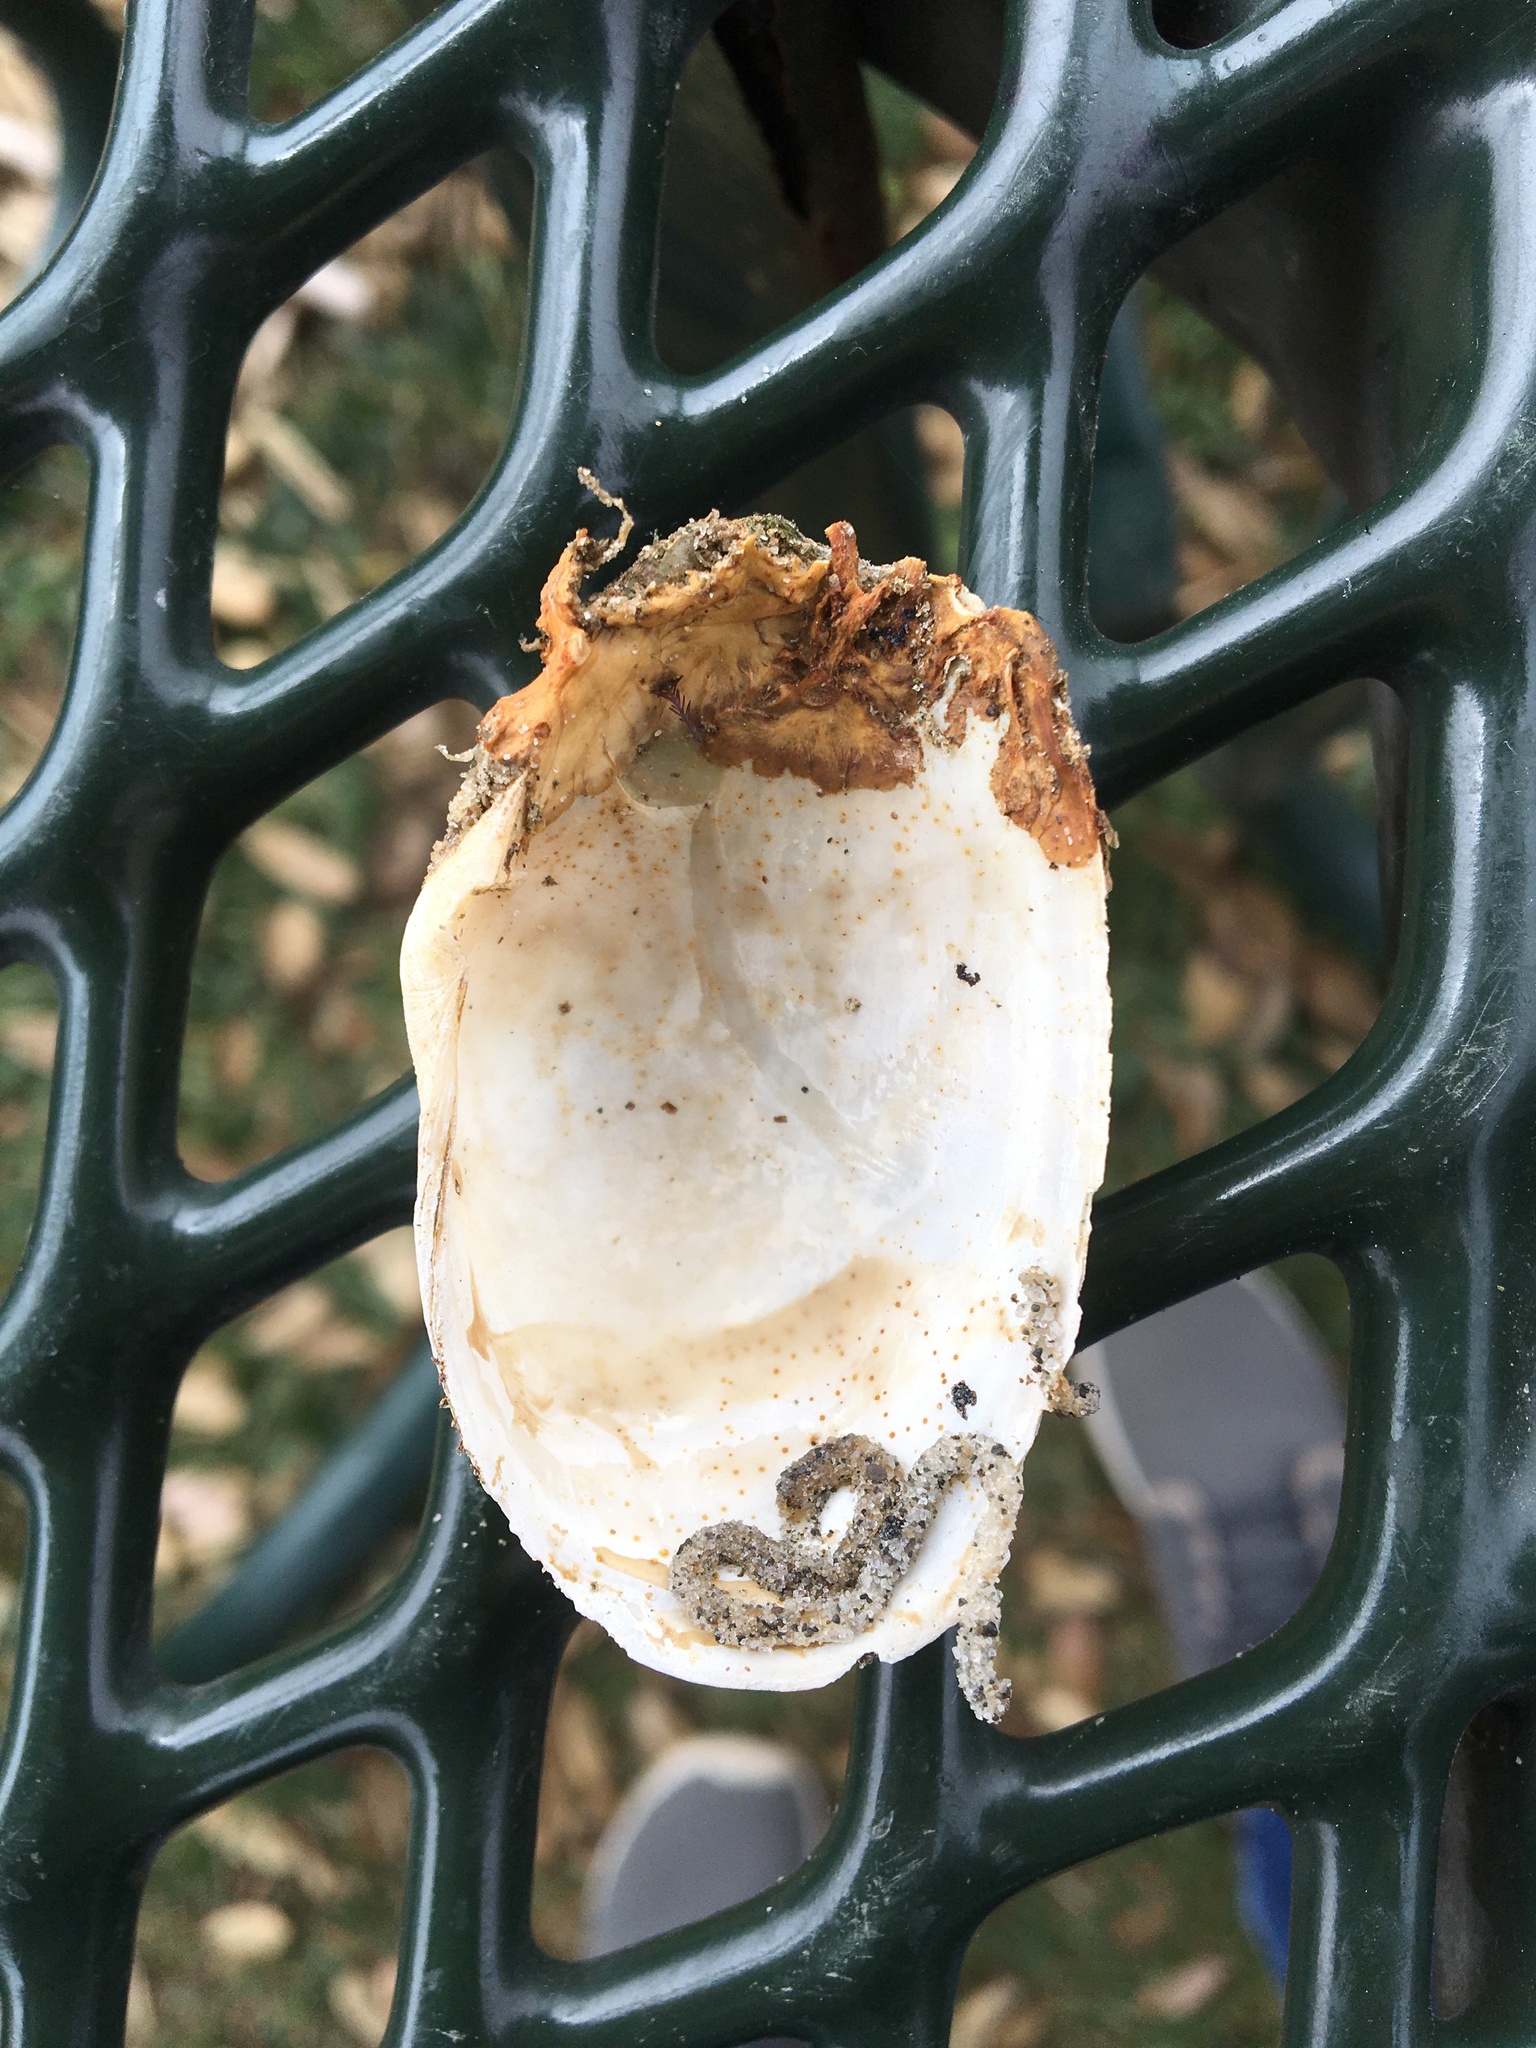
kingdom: Animalia
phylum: Mollusca
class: Bivalvia
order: Myida
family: Myidae
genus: Platyodon
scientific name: Platyodon cancellatus
